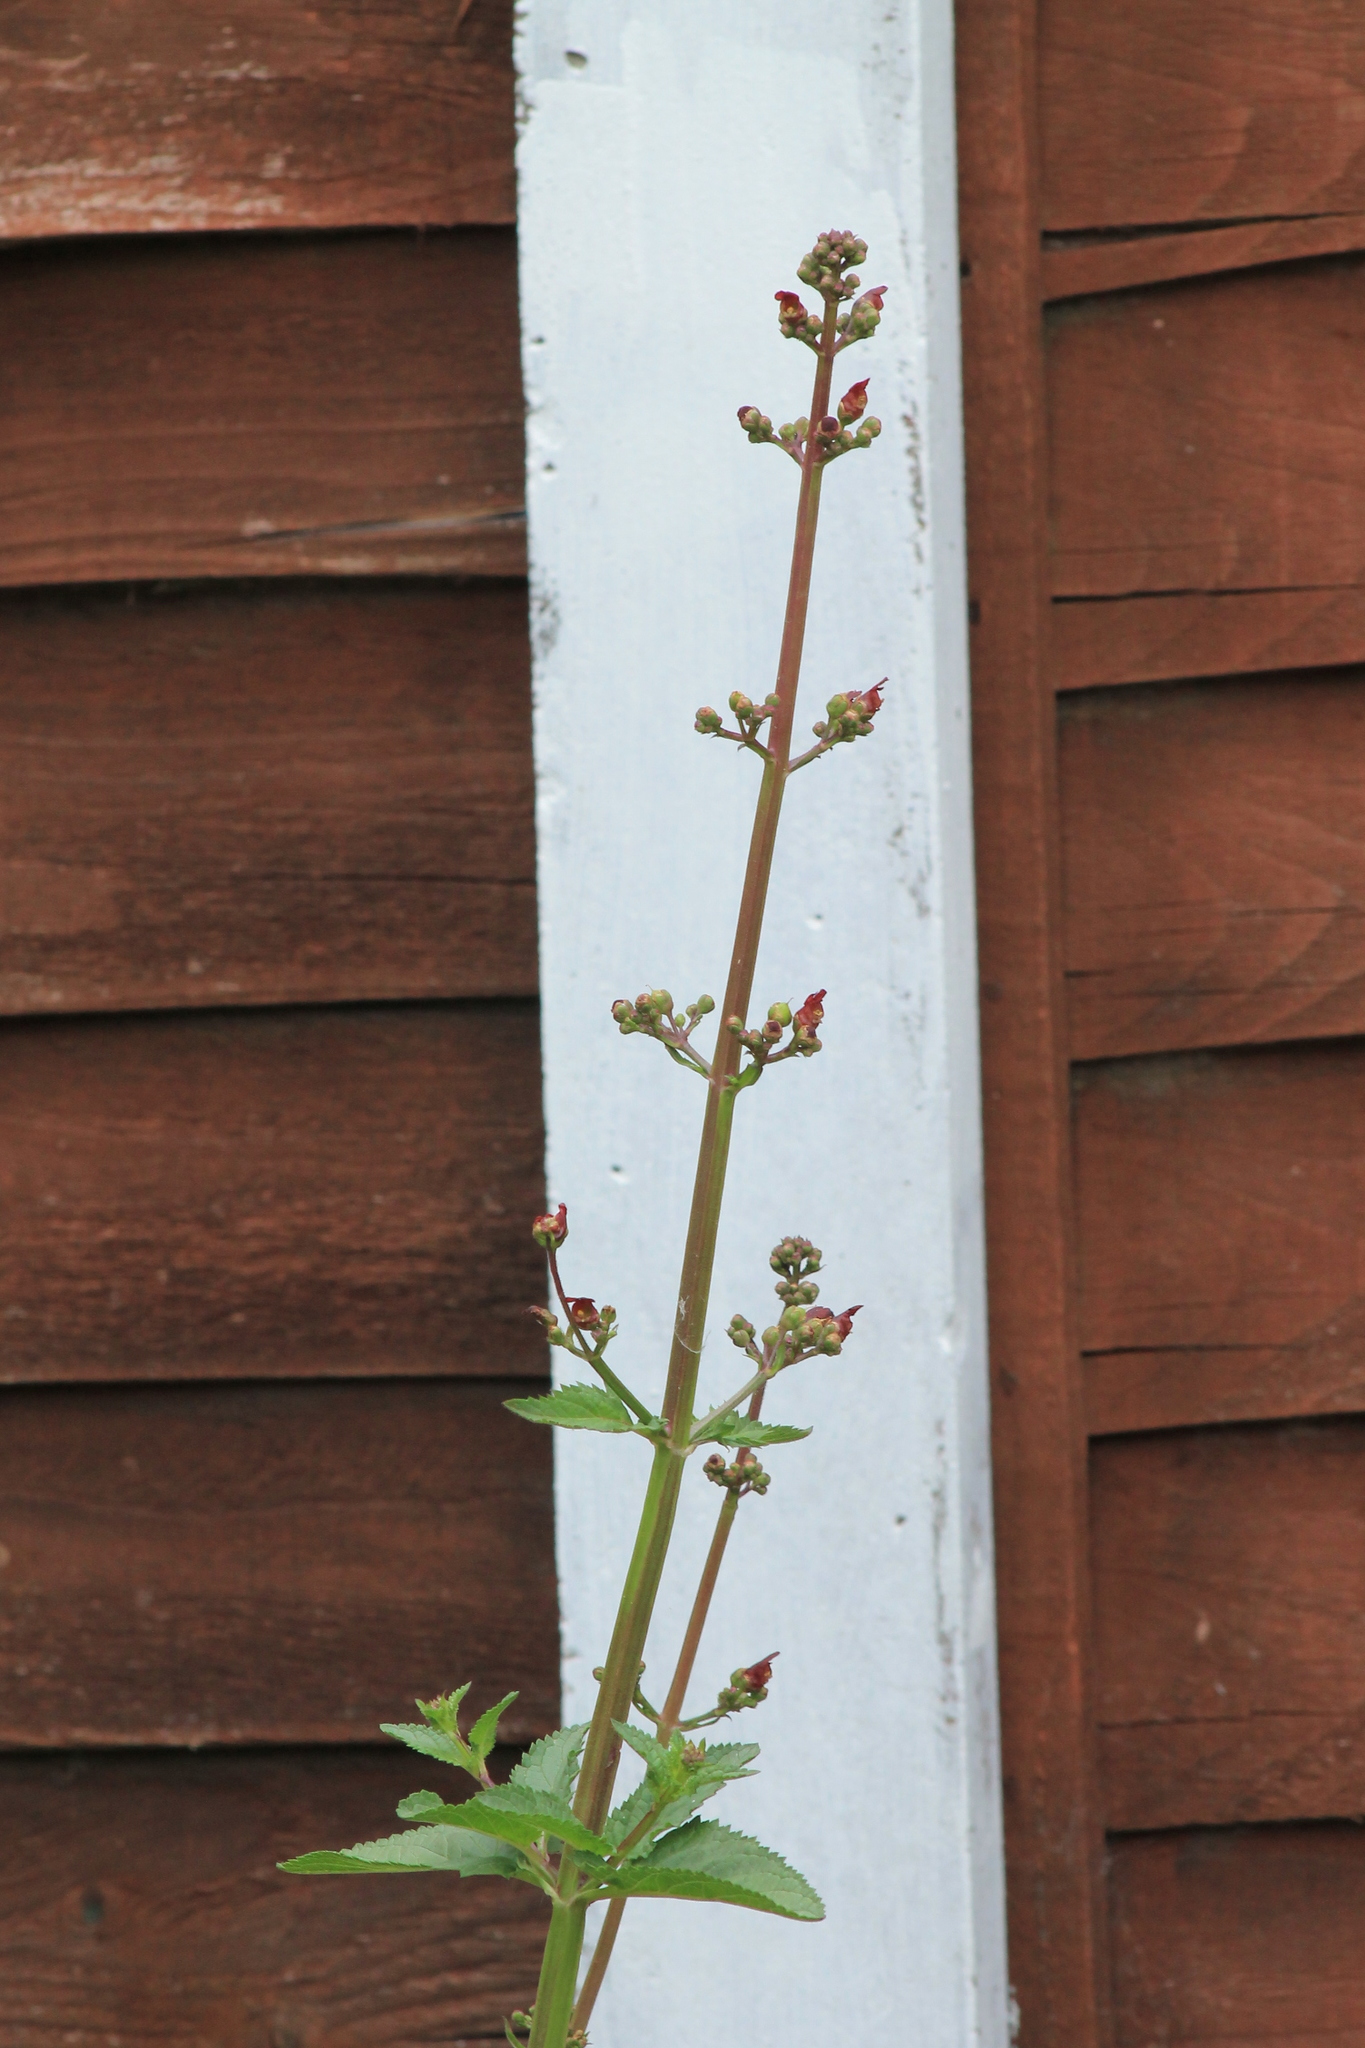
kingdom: Plantae
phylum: Tracheophyta
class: Magnoliopsida
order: Lamiales
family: Scrophulariaceae
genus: Scrophularia
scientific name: Scrophularia auriculata
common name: Water betony
